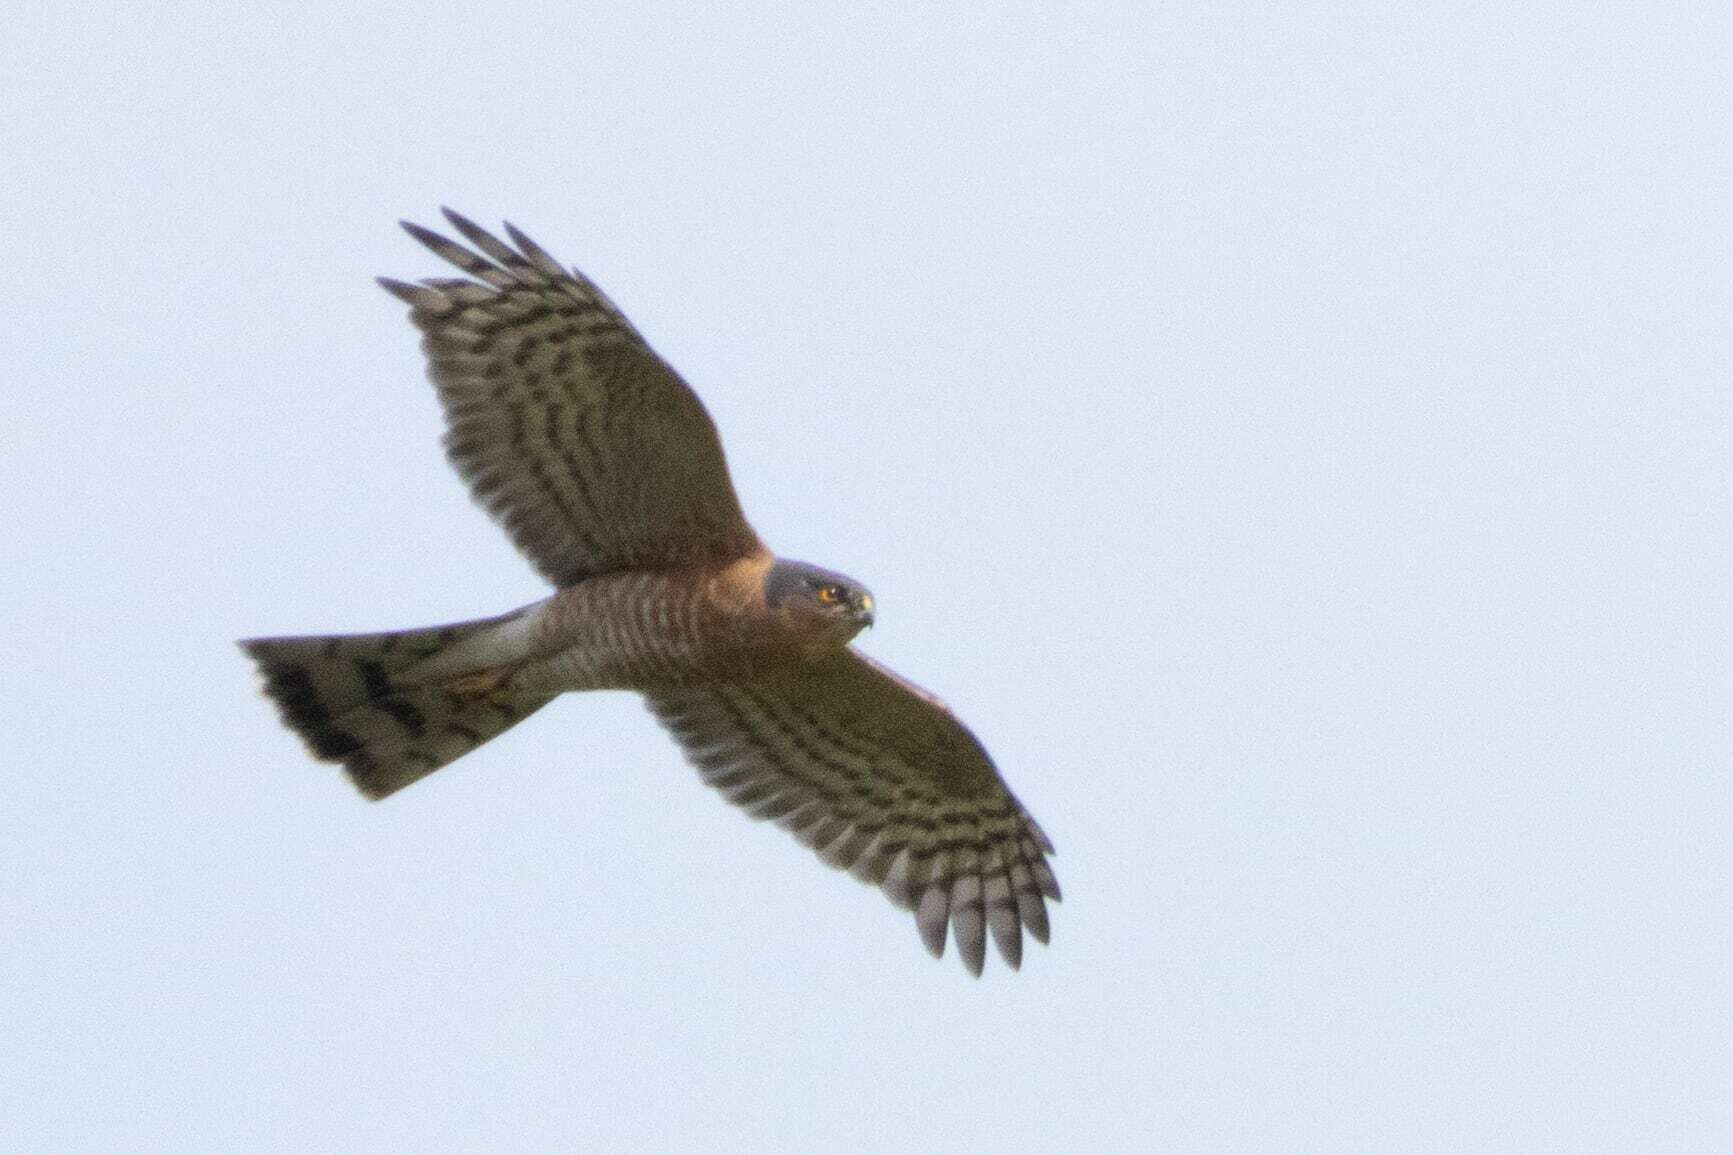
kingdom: Animalia
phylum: Chordata
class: Aves
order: Accipitriformes
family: Accipitridae
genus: Accipiter
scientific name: Accipiter nisus
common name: Eurasian sparrowhawk
